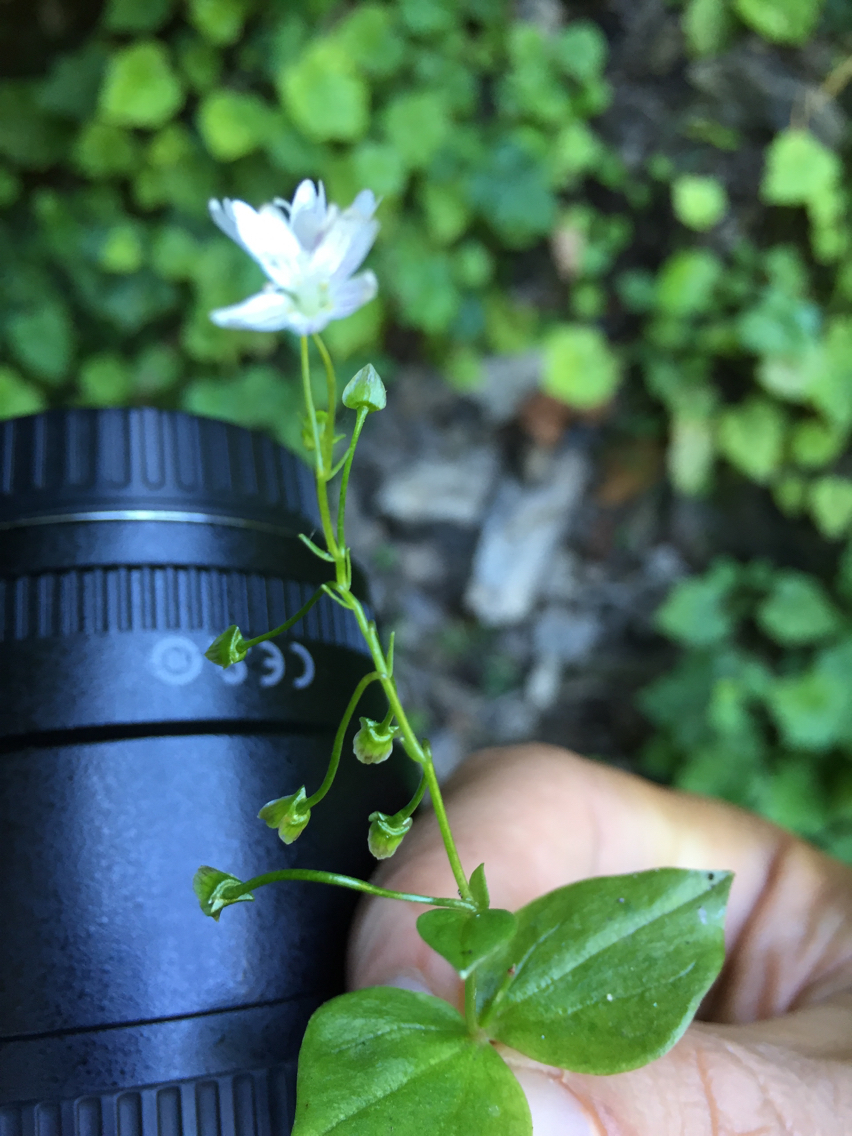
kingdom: Plantae
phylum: Tracheophyta
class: Magnoliopsida
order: Caryophyllales
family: Montiaceae
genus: Claytonia
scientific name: Claytonia sibirica
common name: Pink purslane
